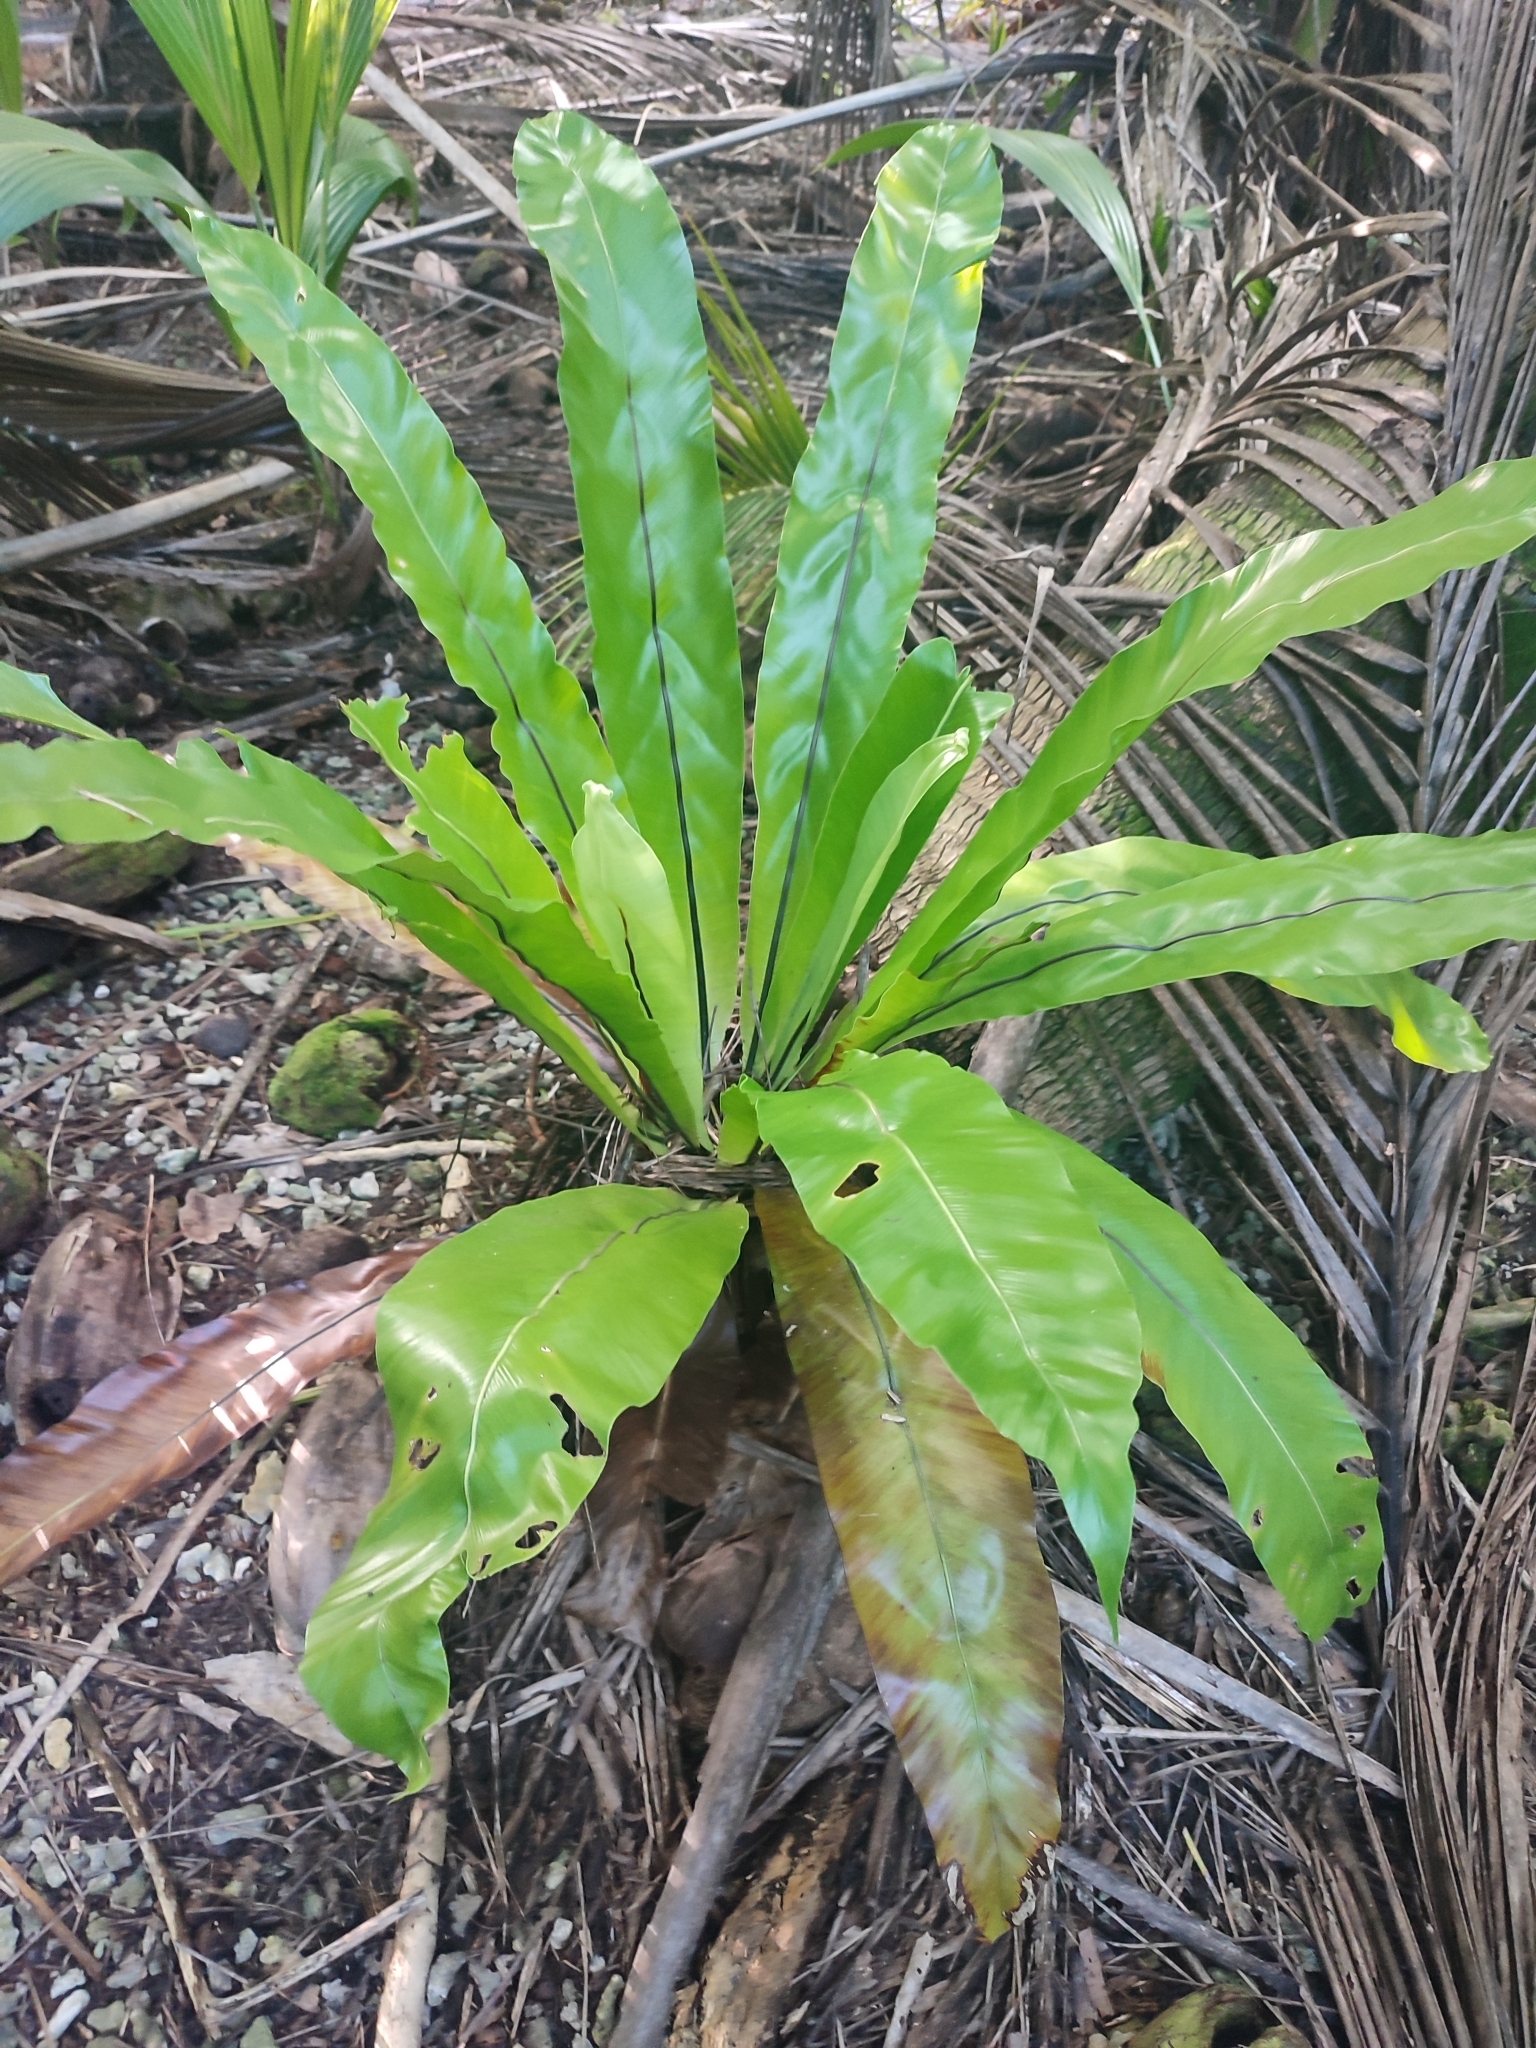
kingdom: Plantae
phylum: Tracheophyta
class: Polypodiopsida
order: Polypodiales
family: Aspleniaceae
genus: Asplenium
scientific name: Asplenium nidus
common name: Bird's-nest fern
